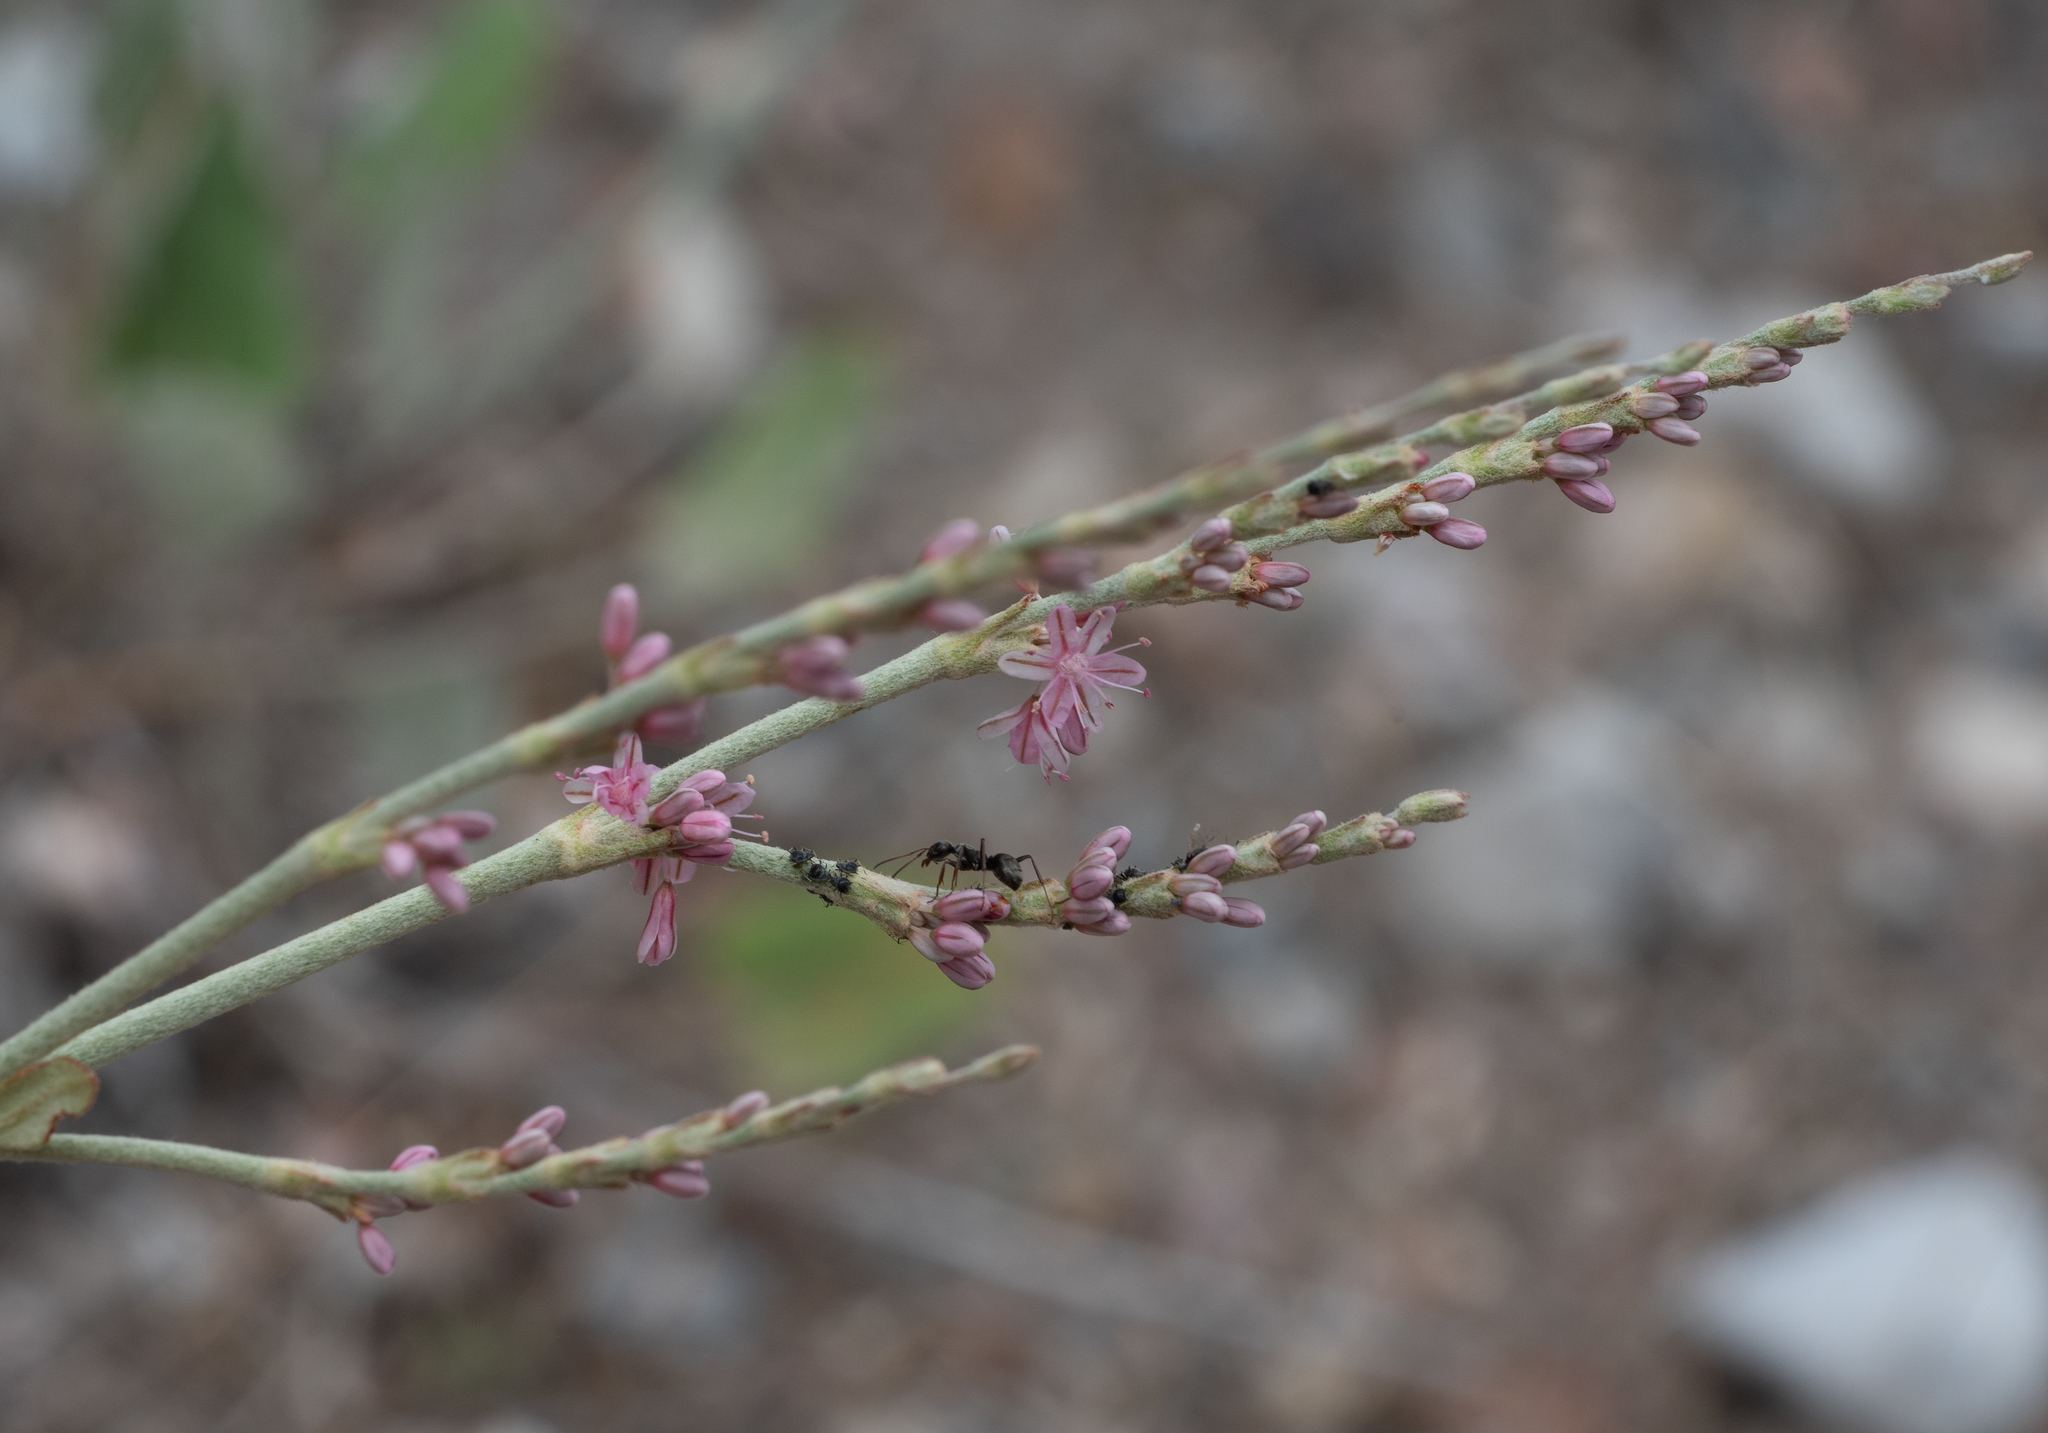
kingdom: Animalia
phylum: Arthropoda
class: Insecta
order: Hemiptera
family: Aphididae
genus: Braggia
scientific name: Braggia urovaneta
